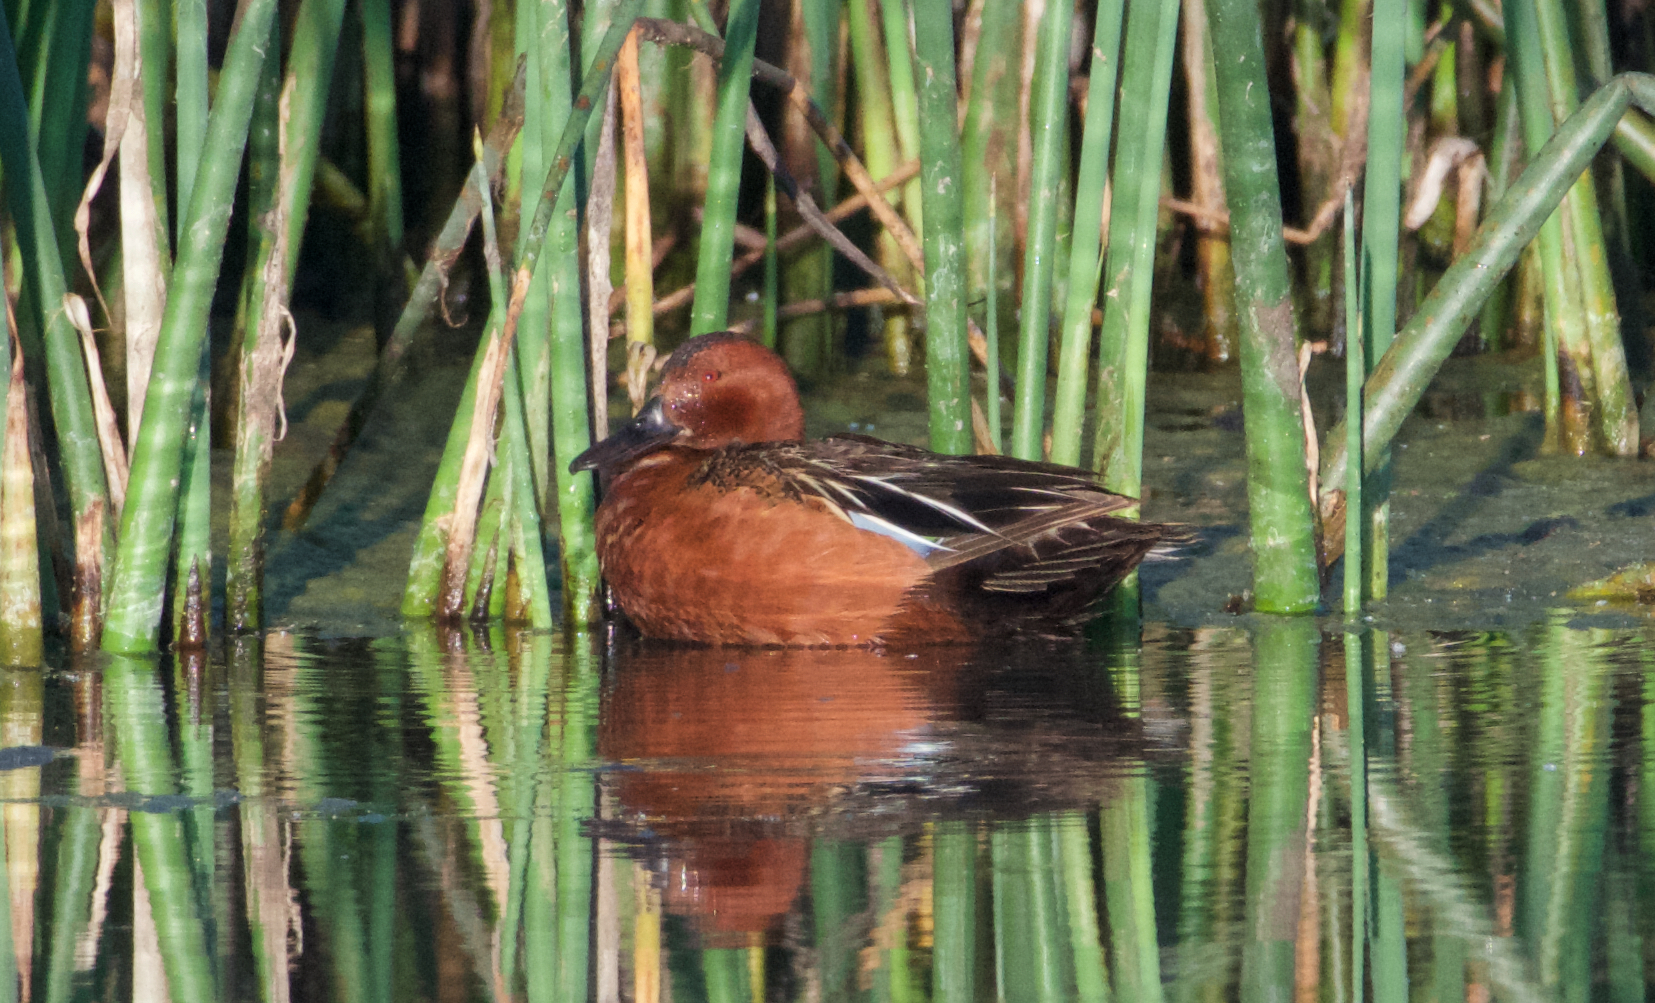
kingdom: Animalia
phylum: Chordata
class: Aves
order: Anseriformes
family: Anatidae
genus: Spatula
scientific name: Spatula cyanoptera
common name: Cinnamon teal
